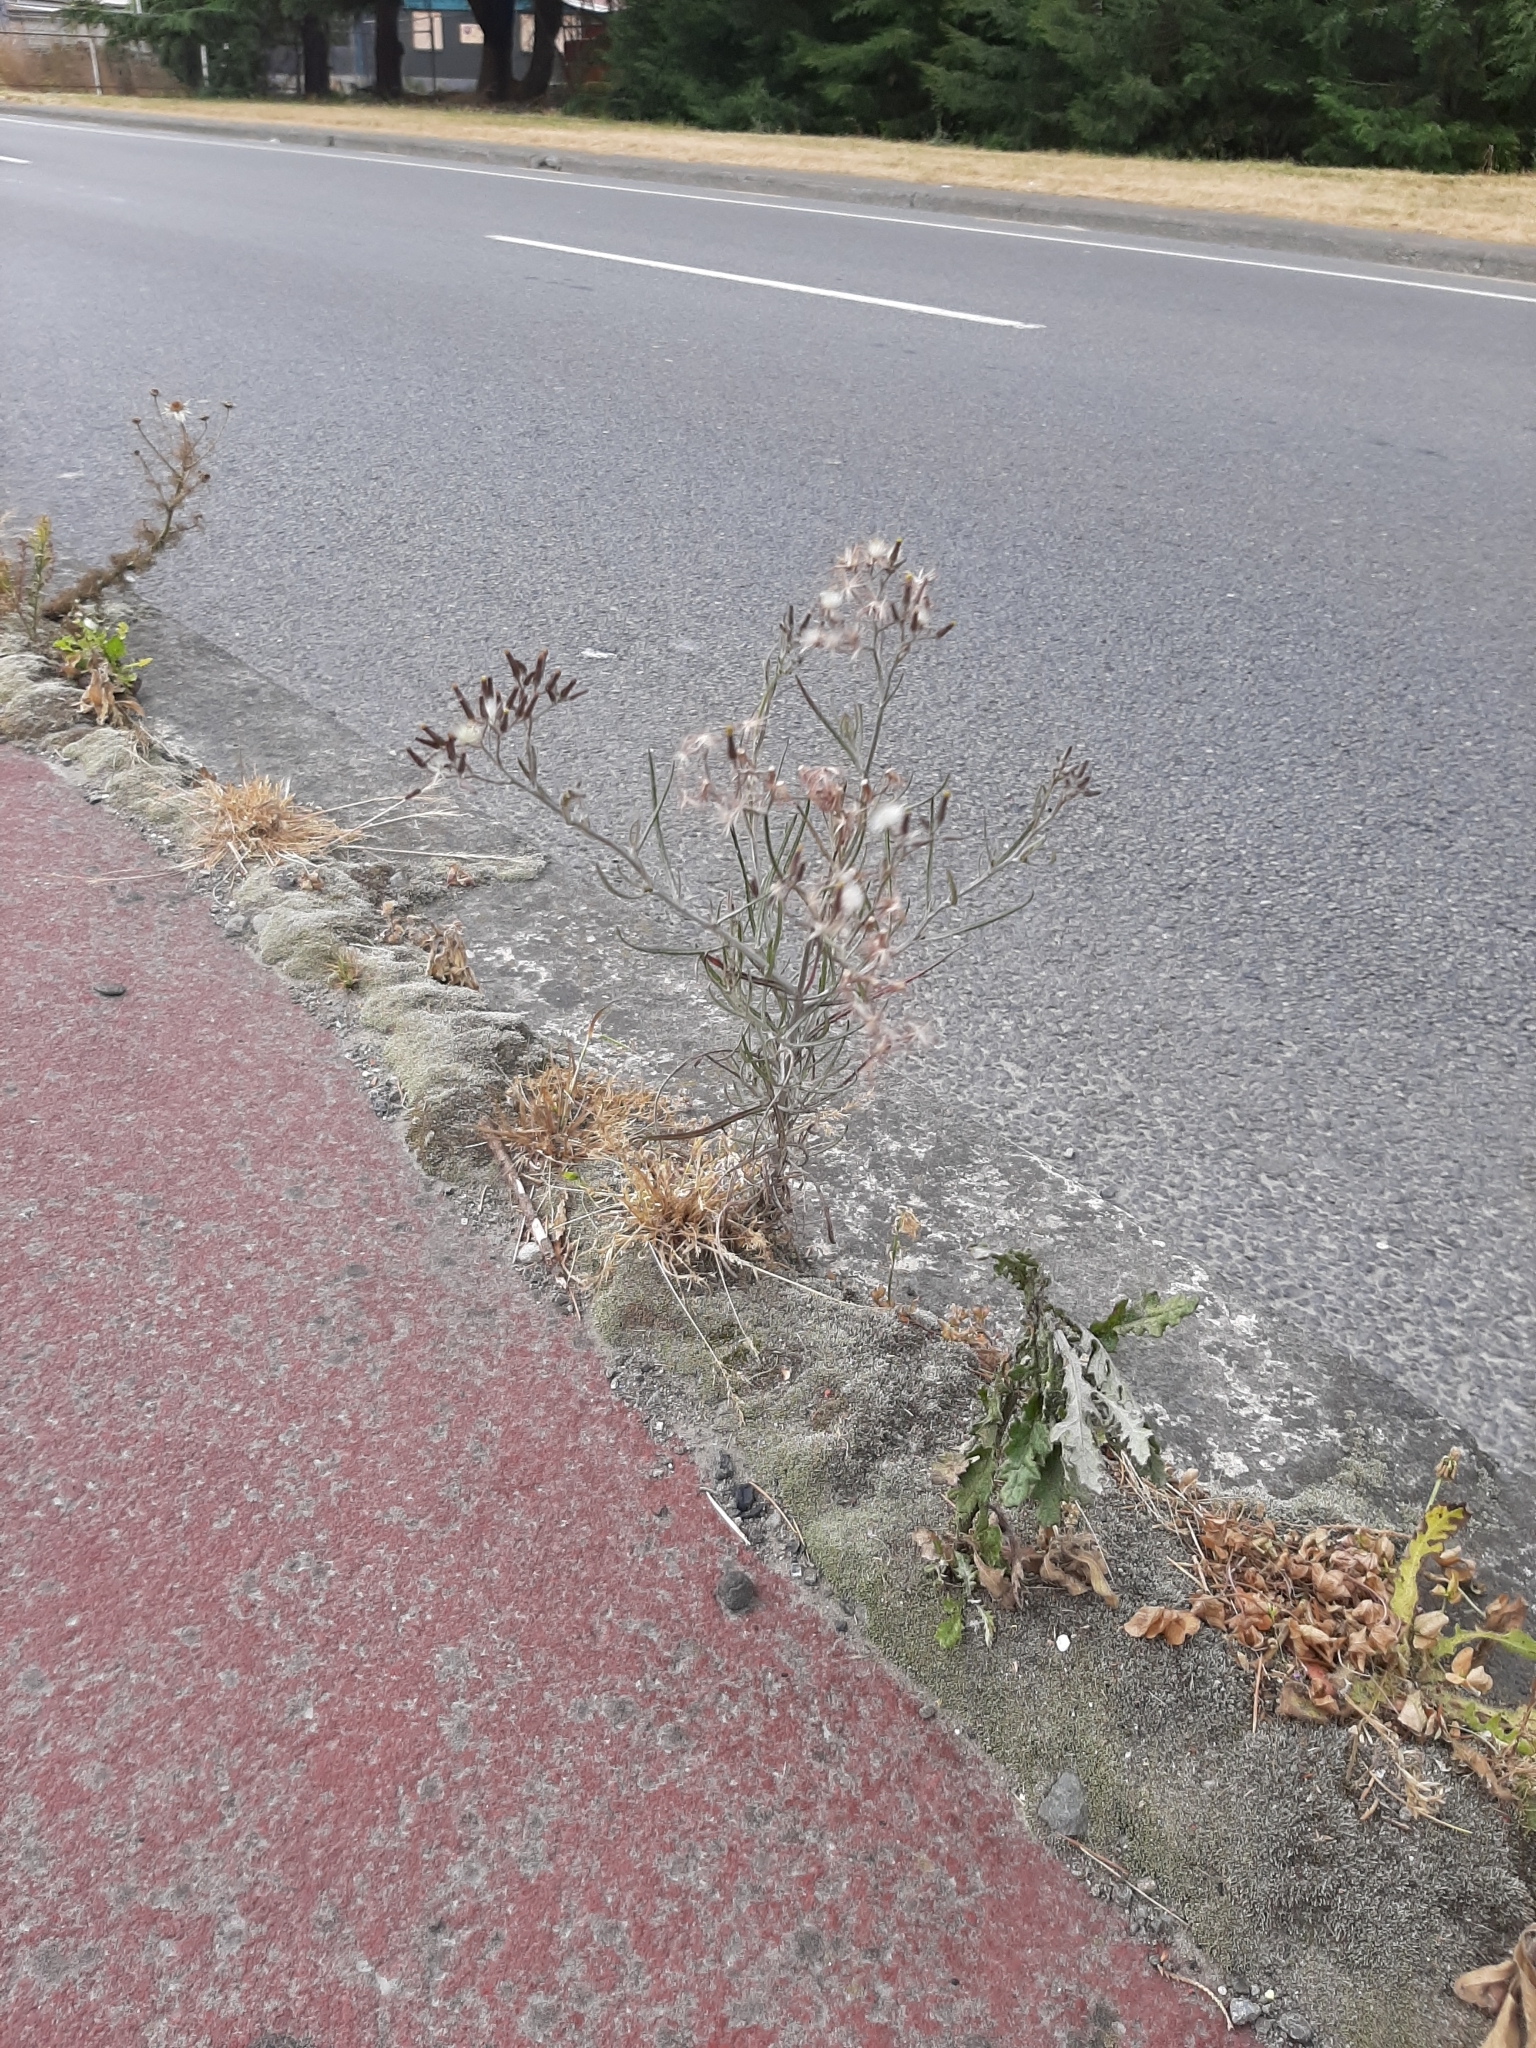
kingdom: Plantae
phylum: Tracheophyta
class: Magnoliopsida
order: Asterales
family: Asteraceae
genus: Senecio
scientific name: Senecio quadridentatus
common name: Cotton fireweed
